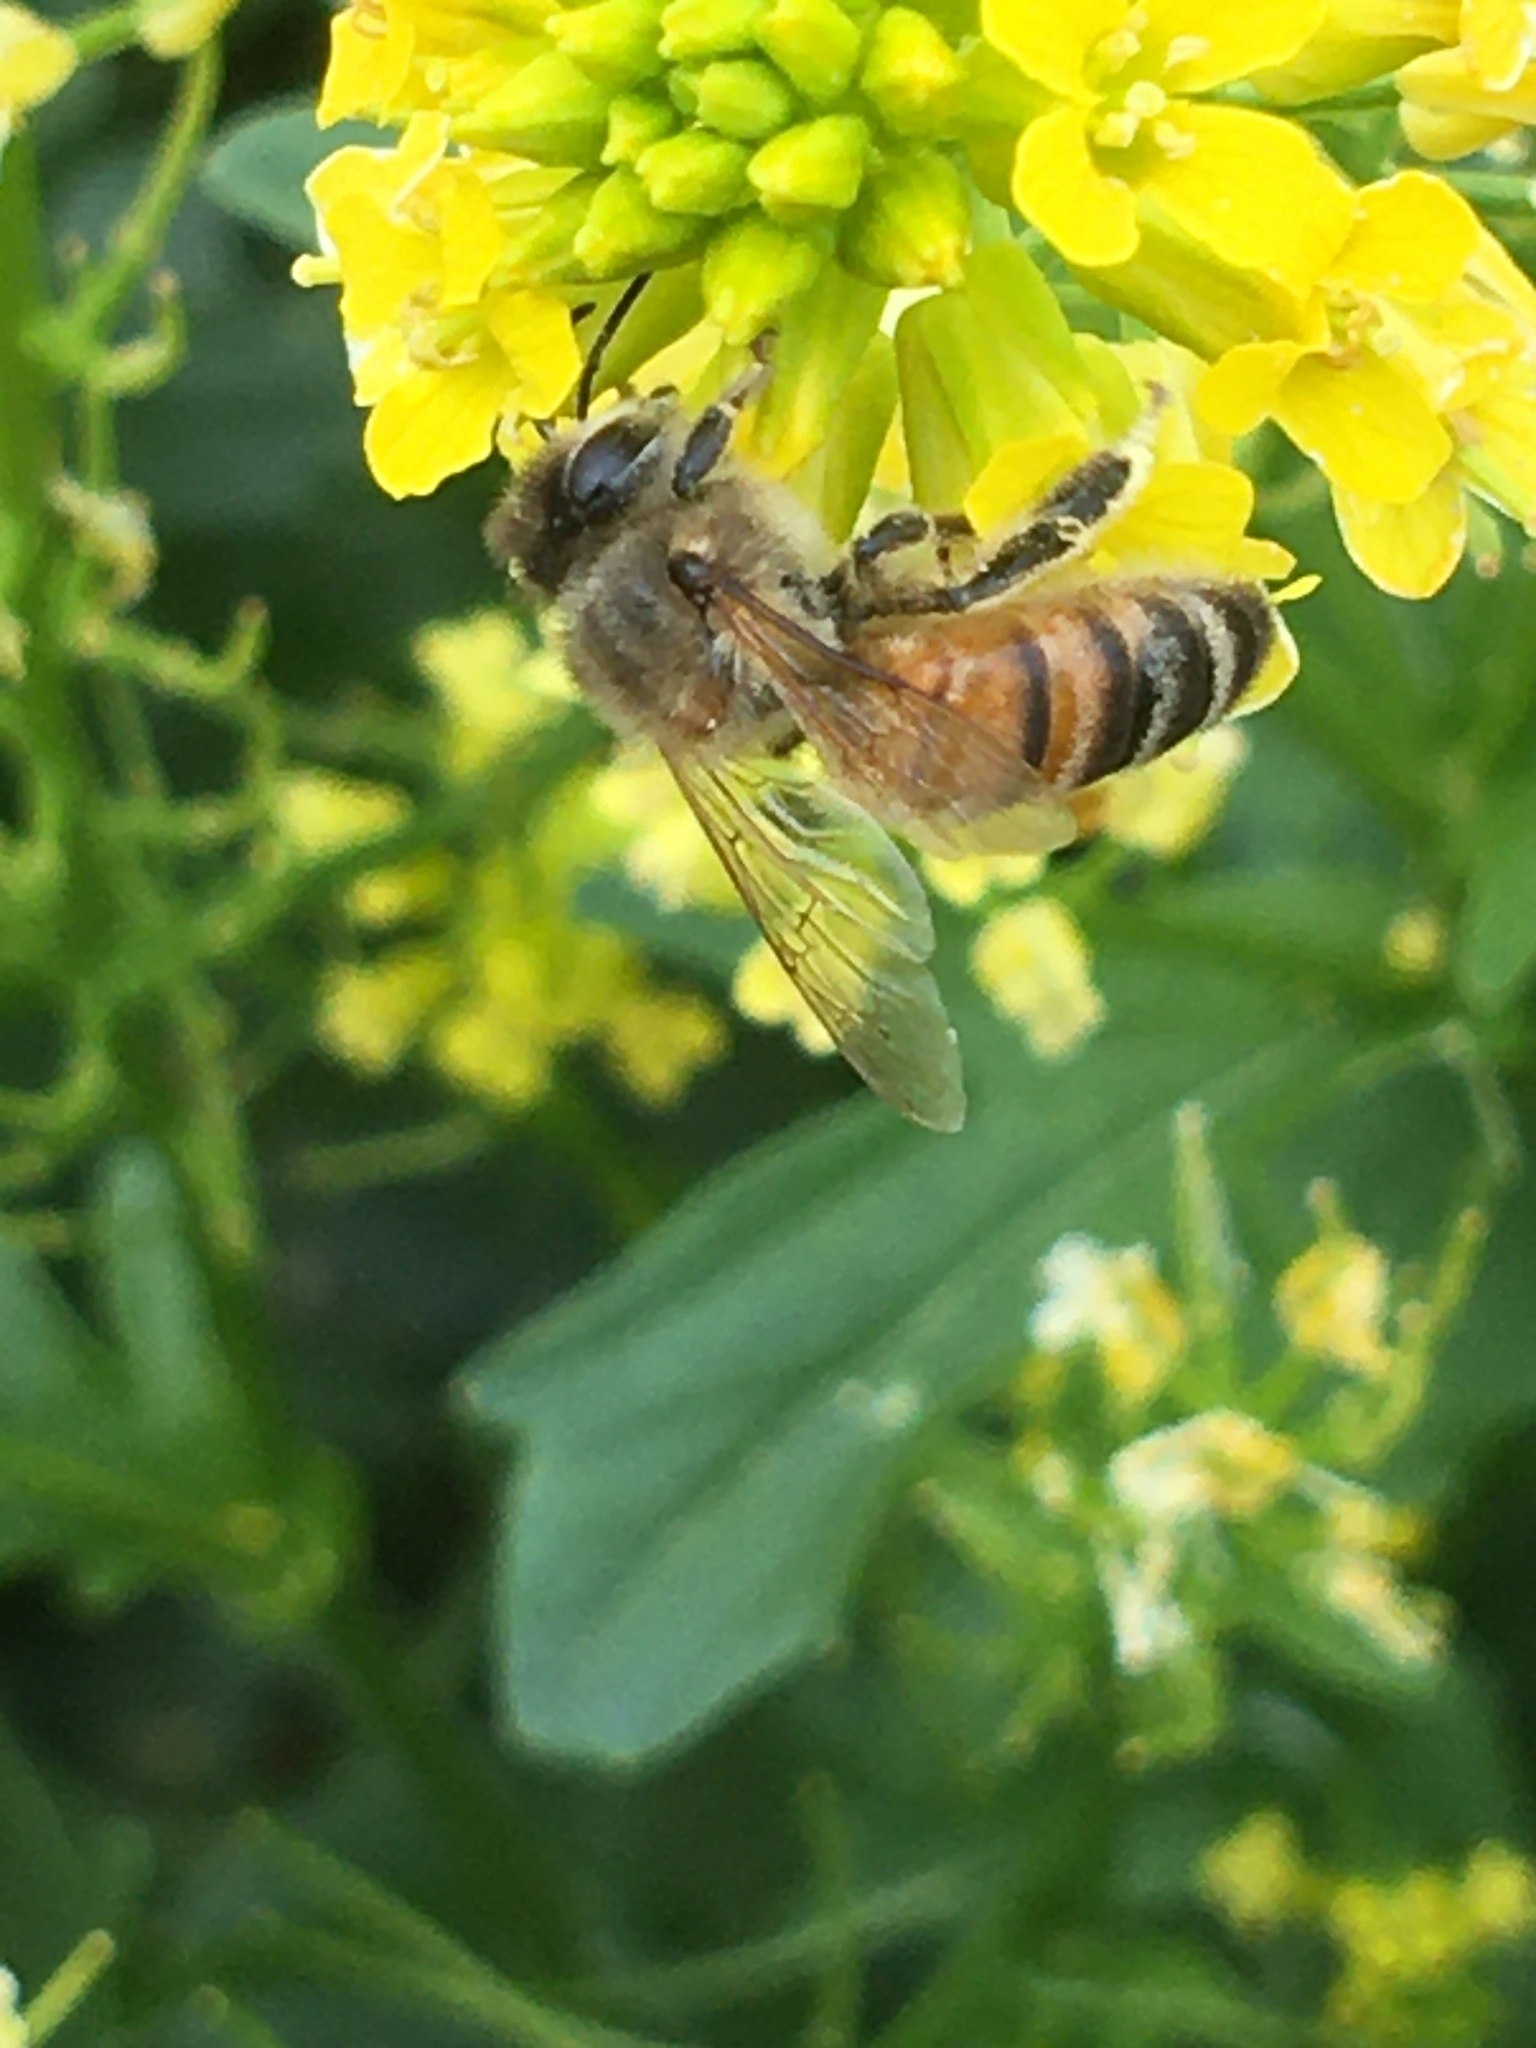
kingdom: Animalia
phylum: Arthropoda
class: Insecta
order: Hymenoptera
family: Apidae
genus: Apis
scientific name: Apis mellifera
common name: Honey bee
